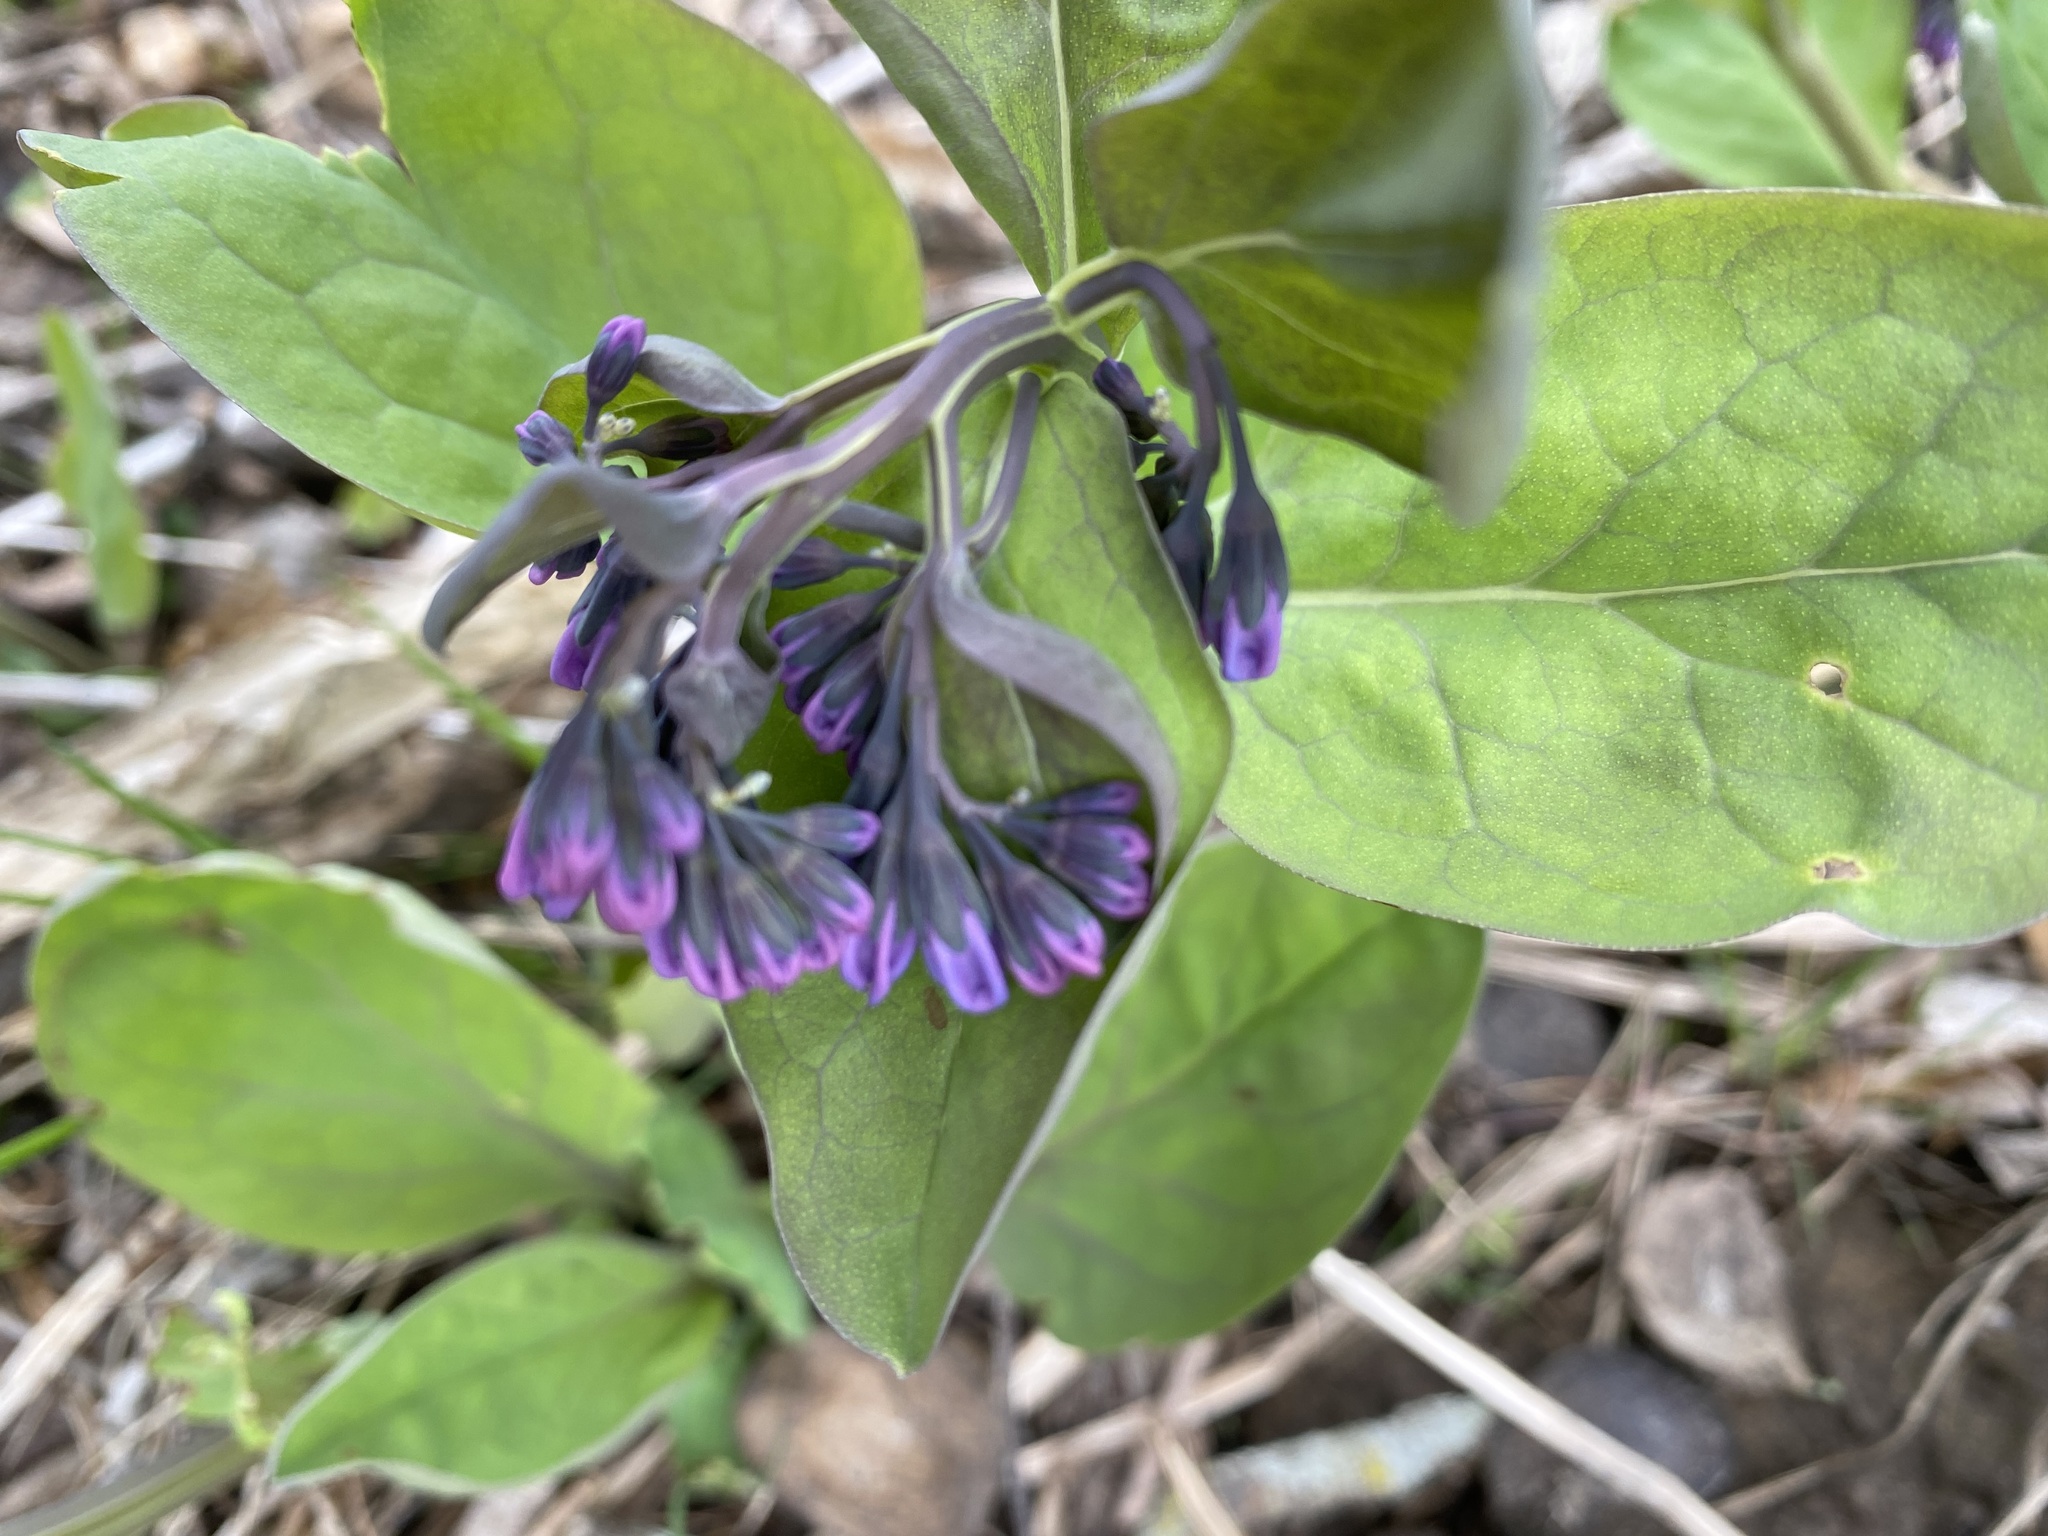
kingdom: Plantae
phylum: Tracheophyta
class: Magnoliopsida
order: Boraginales
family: Boraginaceae
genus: Mertensia
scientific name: Mertensia virginica
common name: Virginia bluebells
